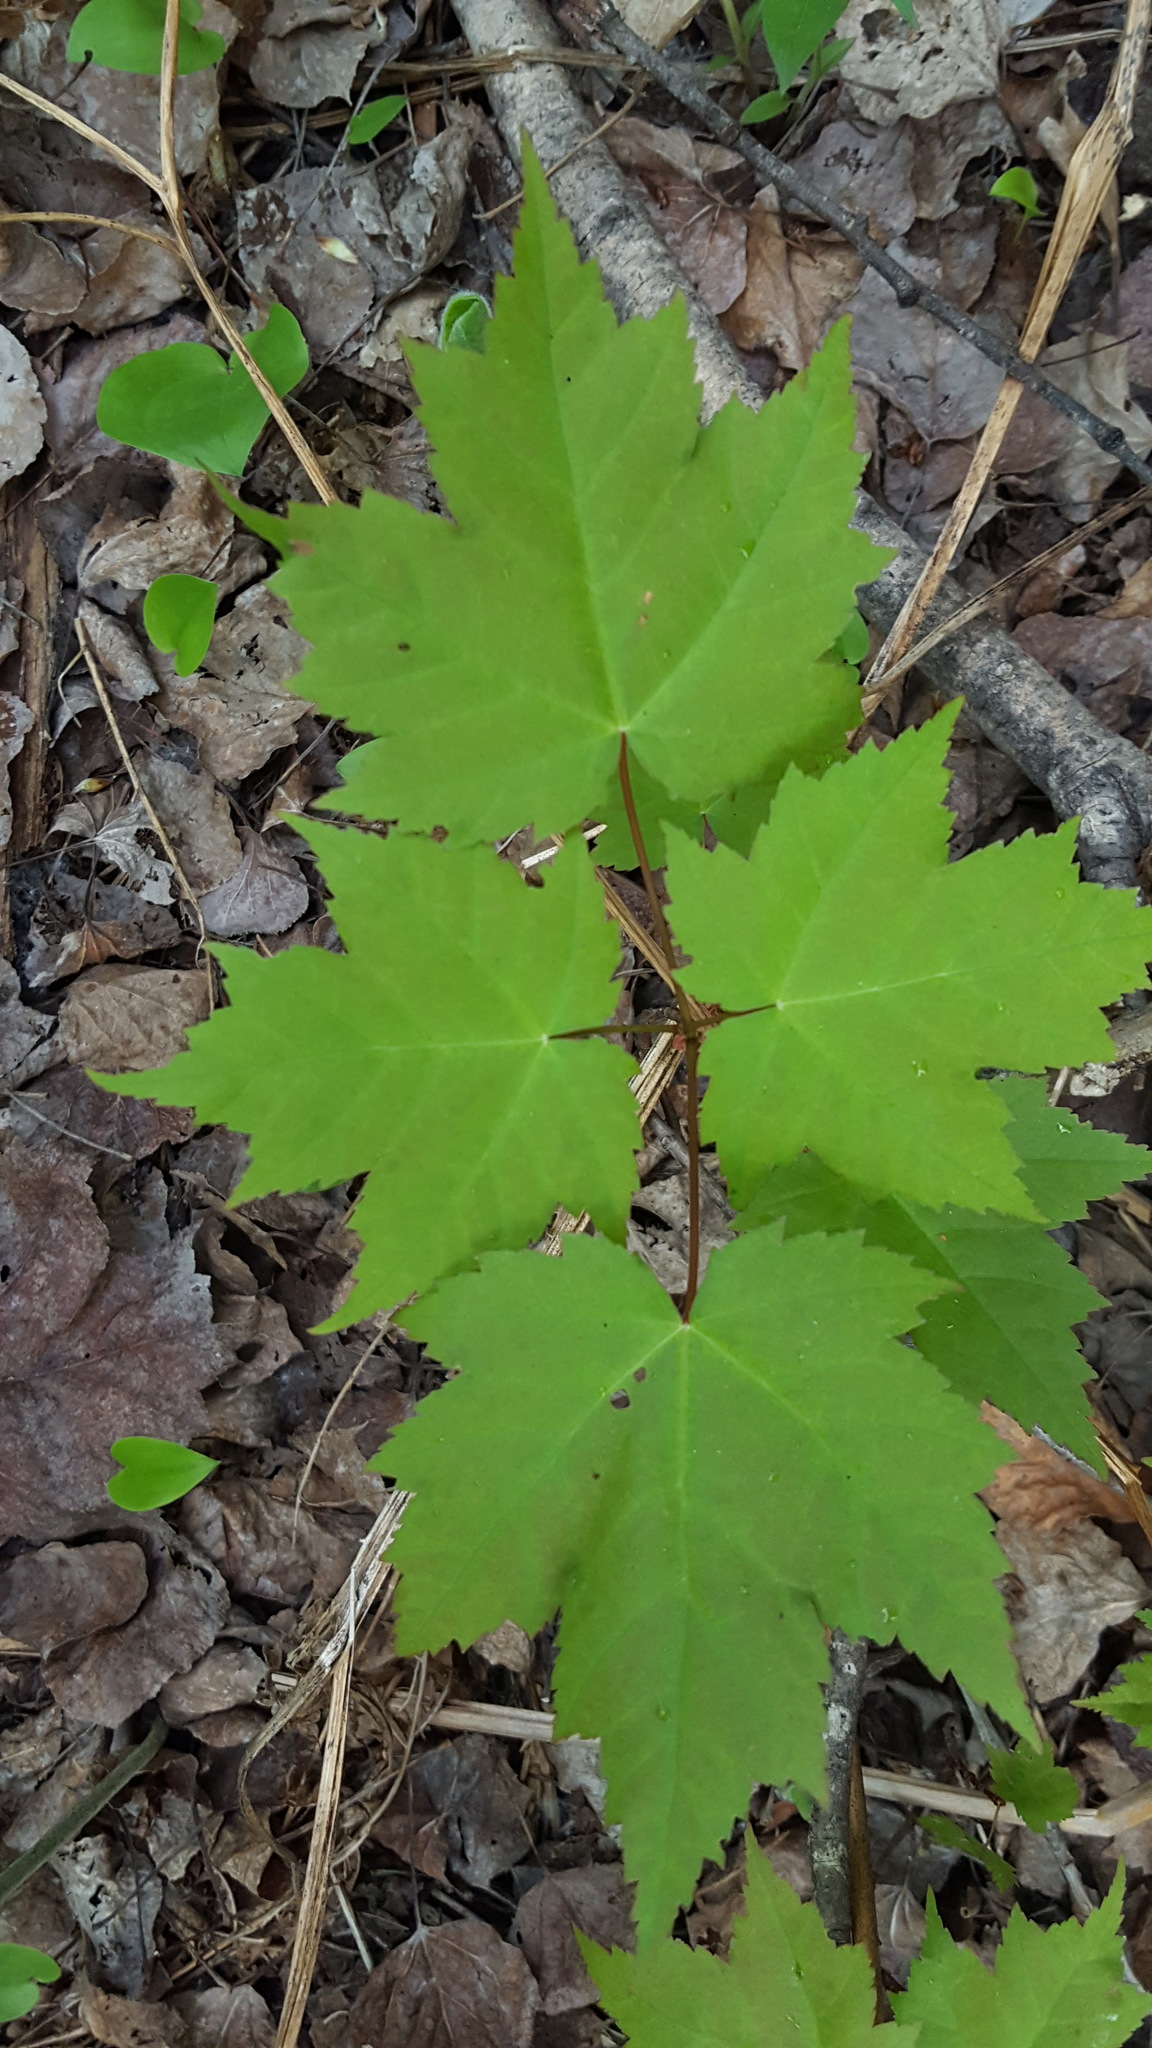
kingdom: Plantae
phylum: Tracheophyta
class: Magnoliopsida
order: Sapindales
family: Sapindaceae
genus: Acer
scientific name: Acer rubrum
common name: Red maple
